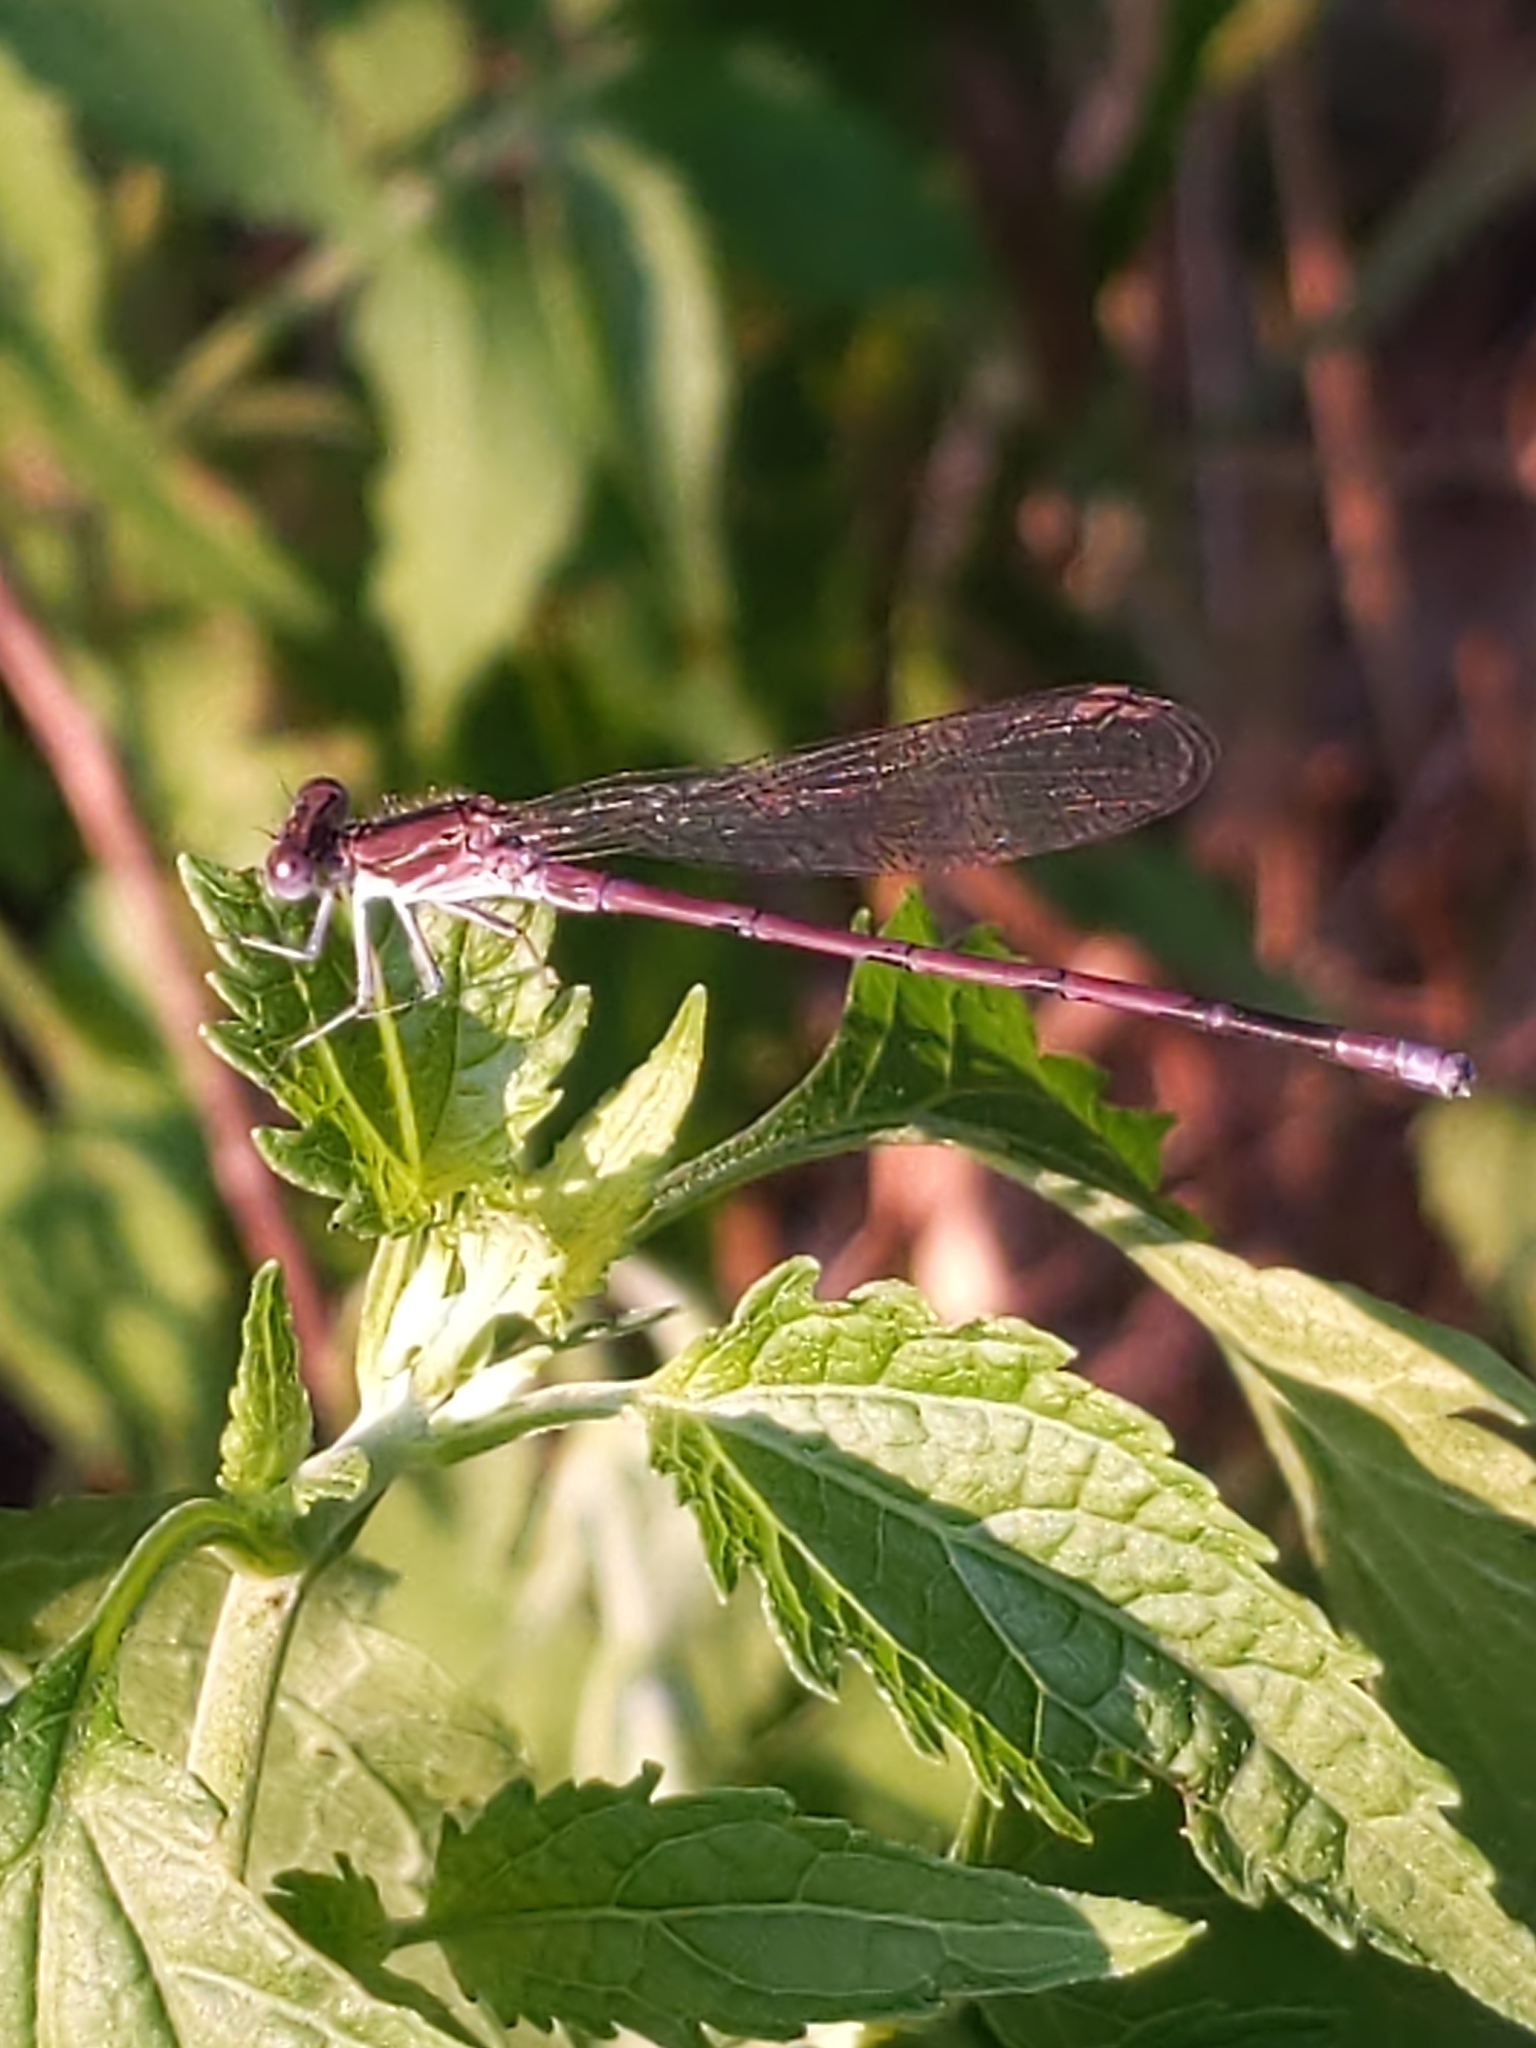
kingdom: Animalia
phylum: Arthropoda
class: Insecta
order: Odonata
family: Coenagrionidae
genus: Argia
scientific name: Argia fumipennis
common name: Variable dancer
